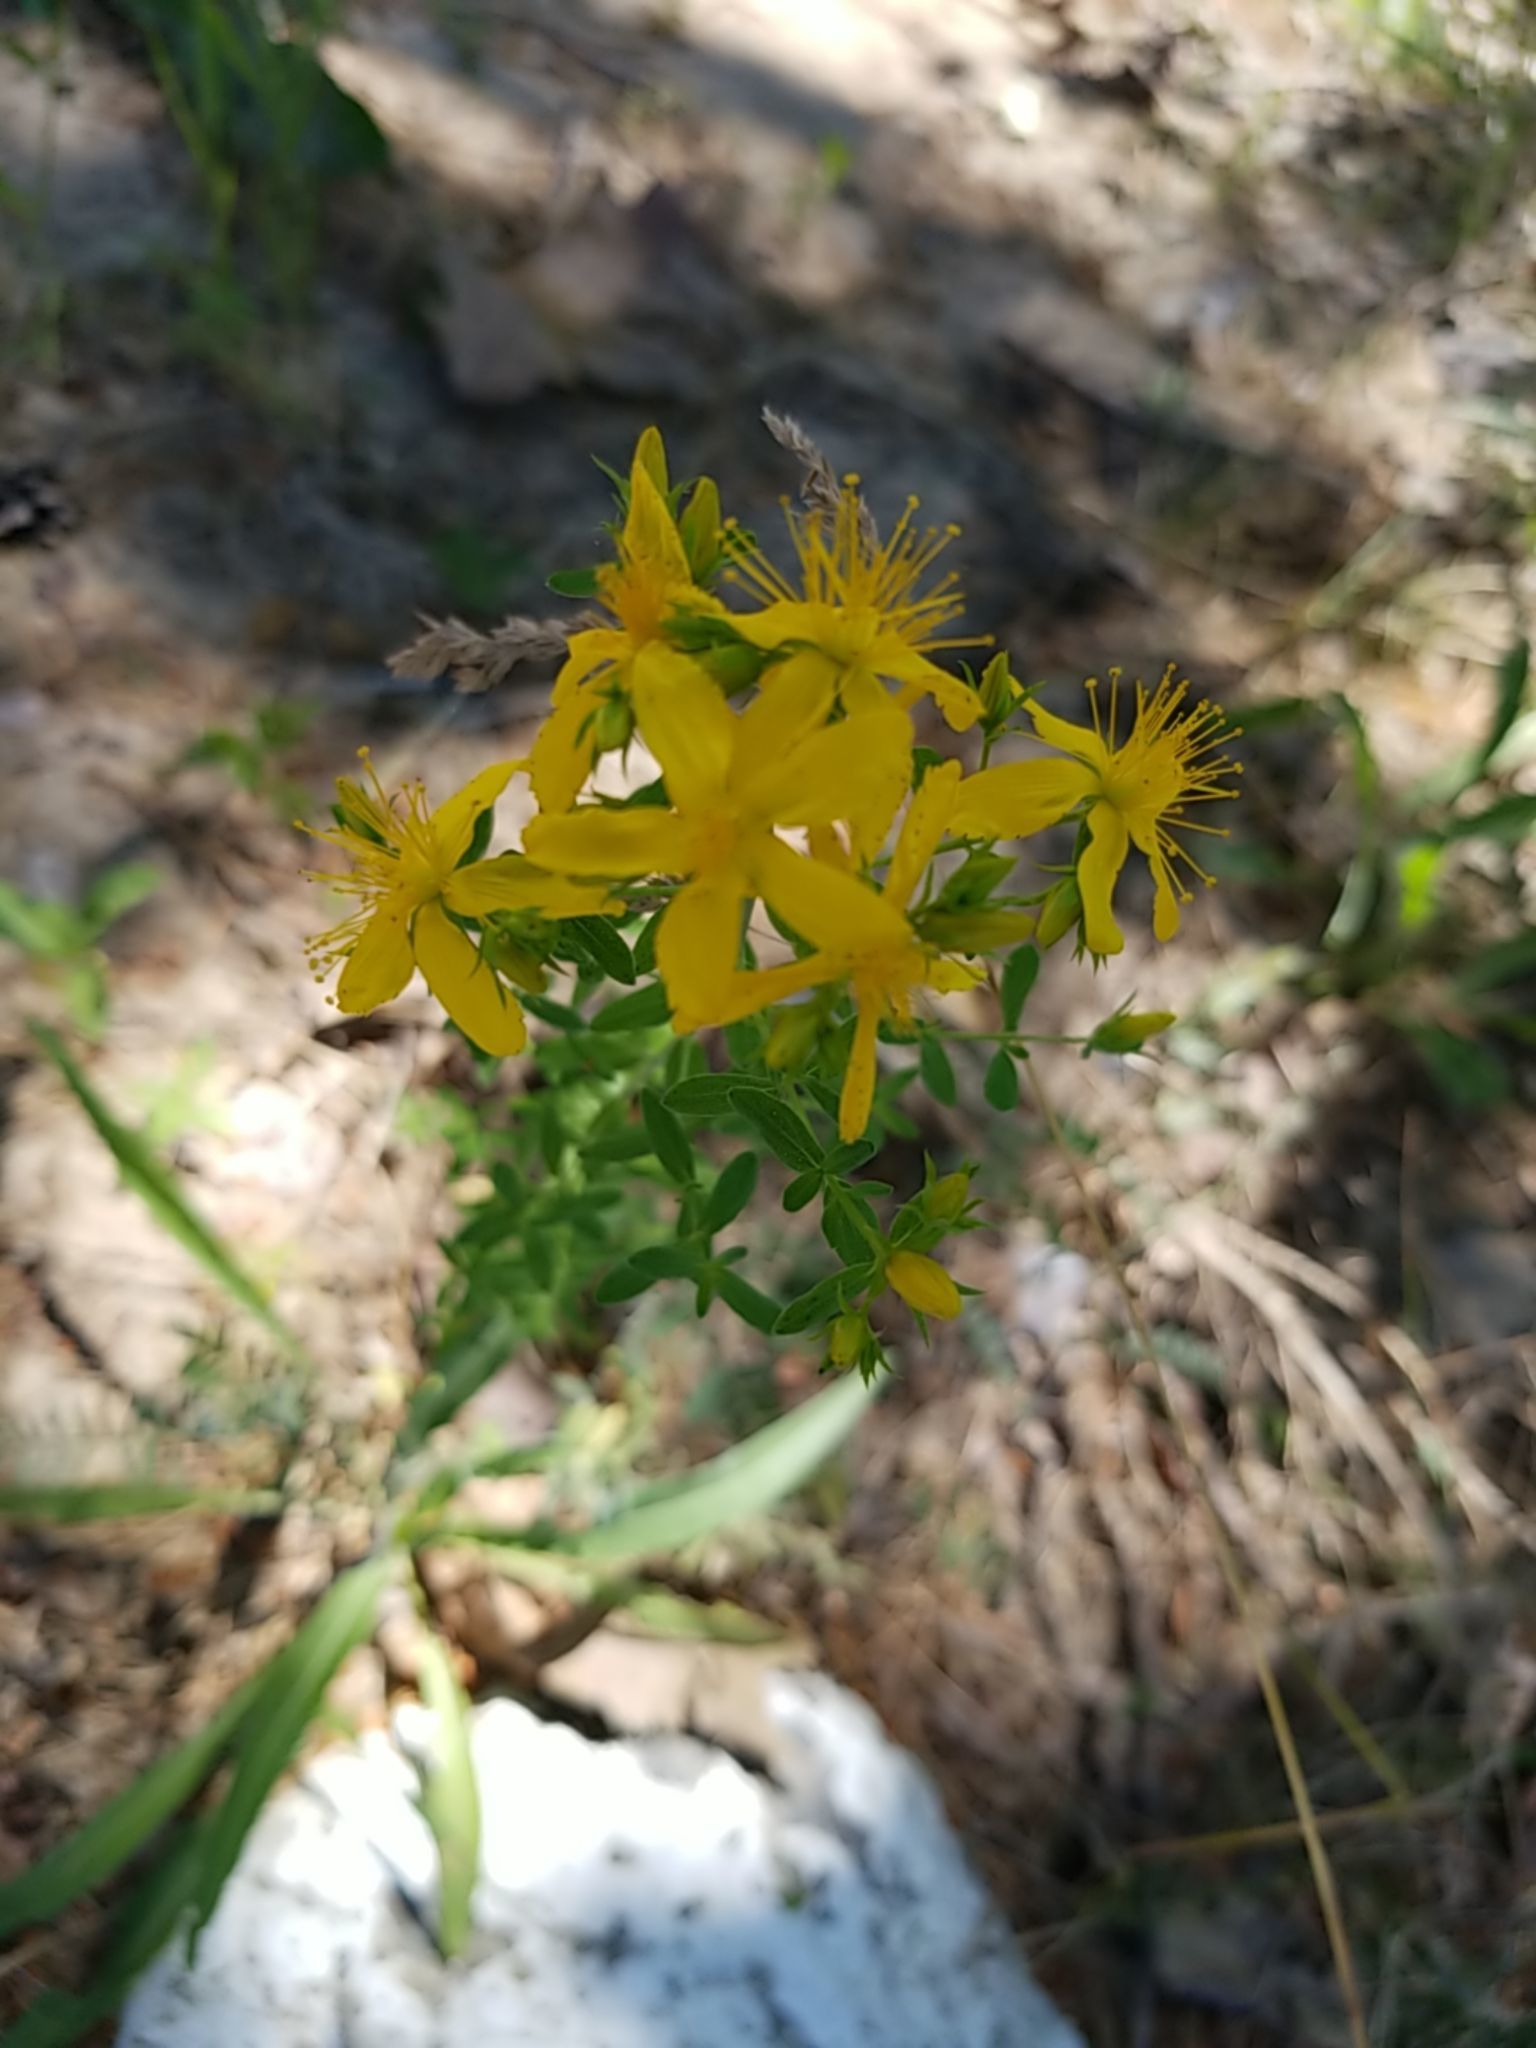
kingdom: Plantae
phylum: Tracheophyta
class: Magnoliopsida
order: Malpighiales
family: Hypericaceae
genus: Hypericum
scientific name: Hypericum perforatum
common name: Common st. johnswort
